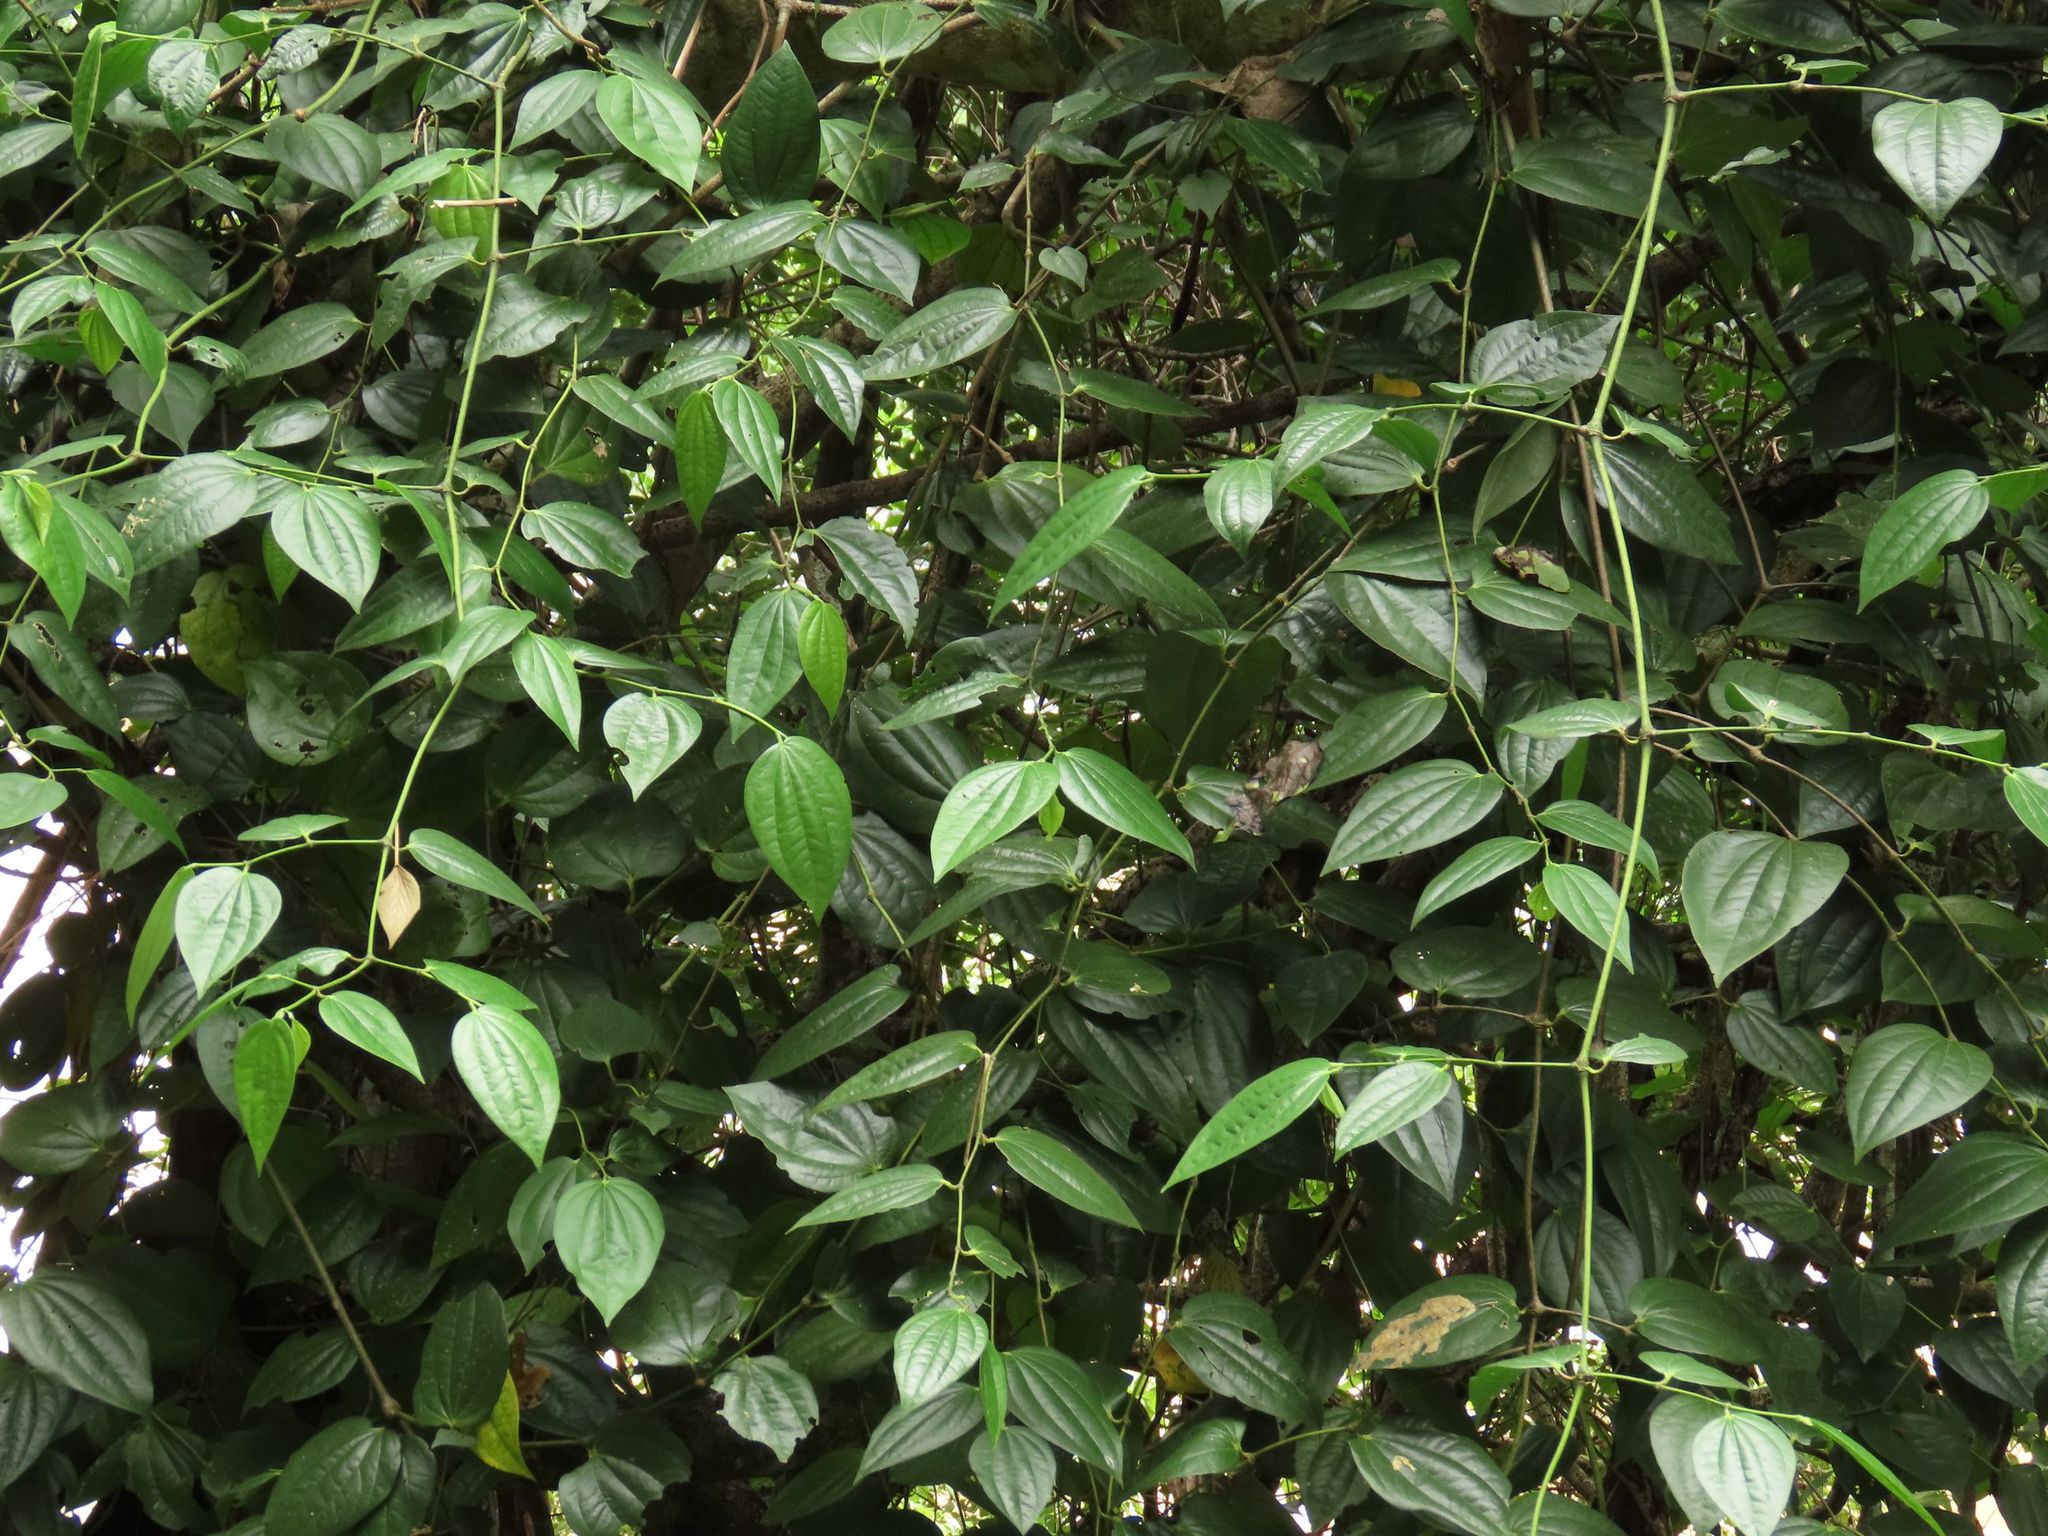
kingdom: Plantae
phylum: Tracheophyta
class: Magnoliopsida
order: Piperales
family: Piperaceae
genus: Piper
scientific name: Piper macropiper
